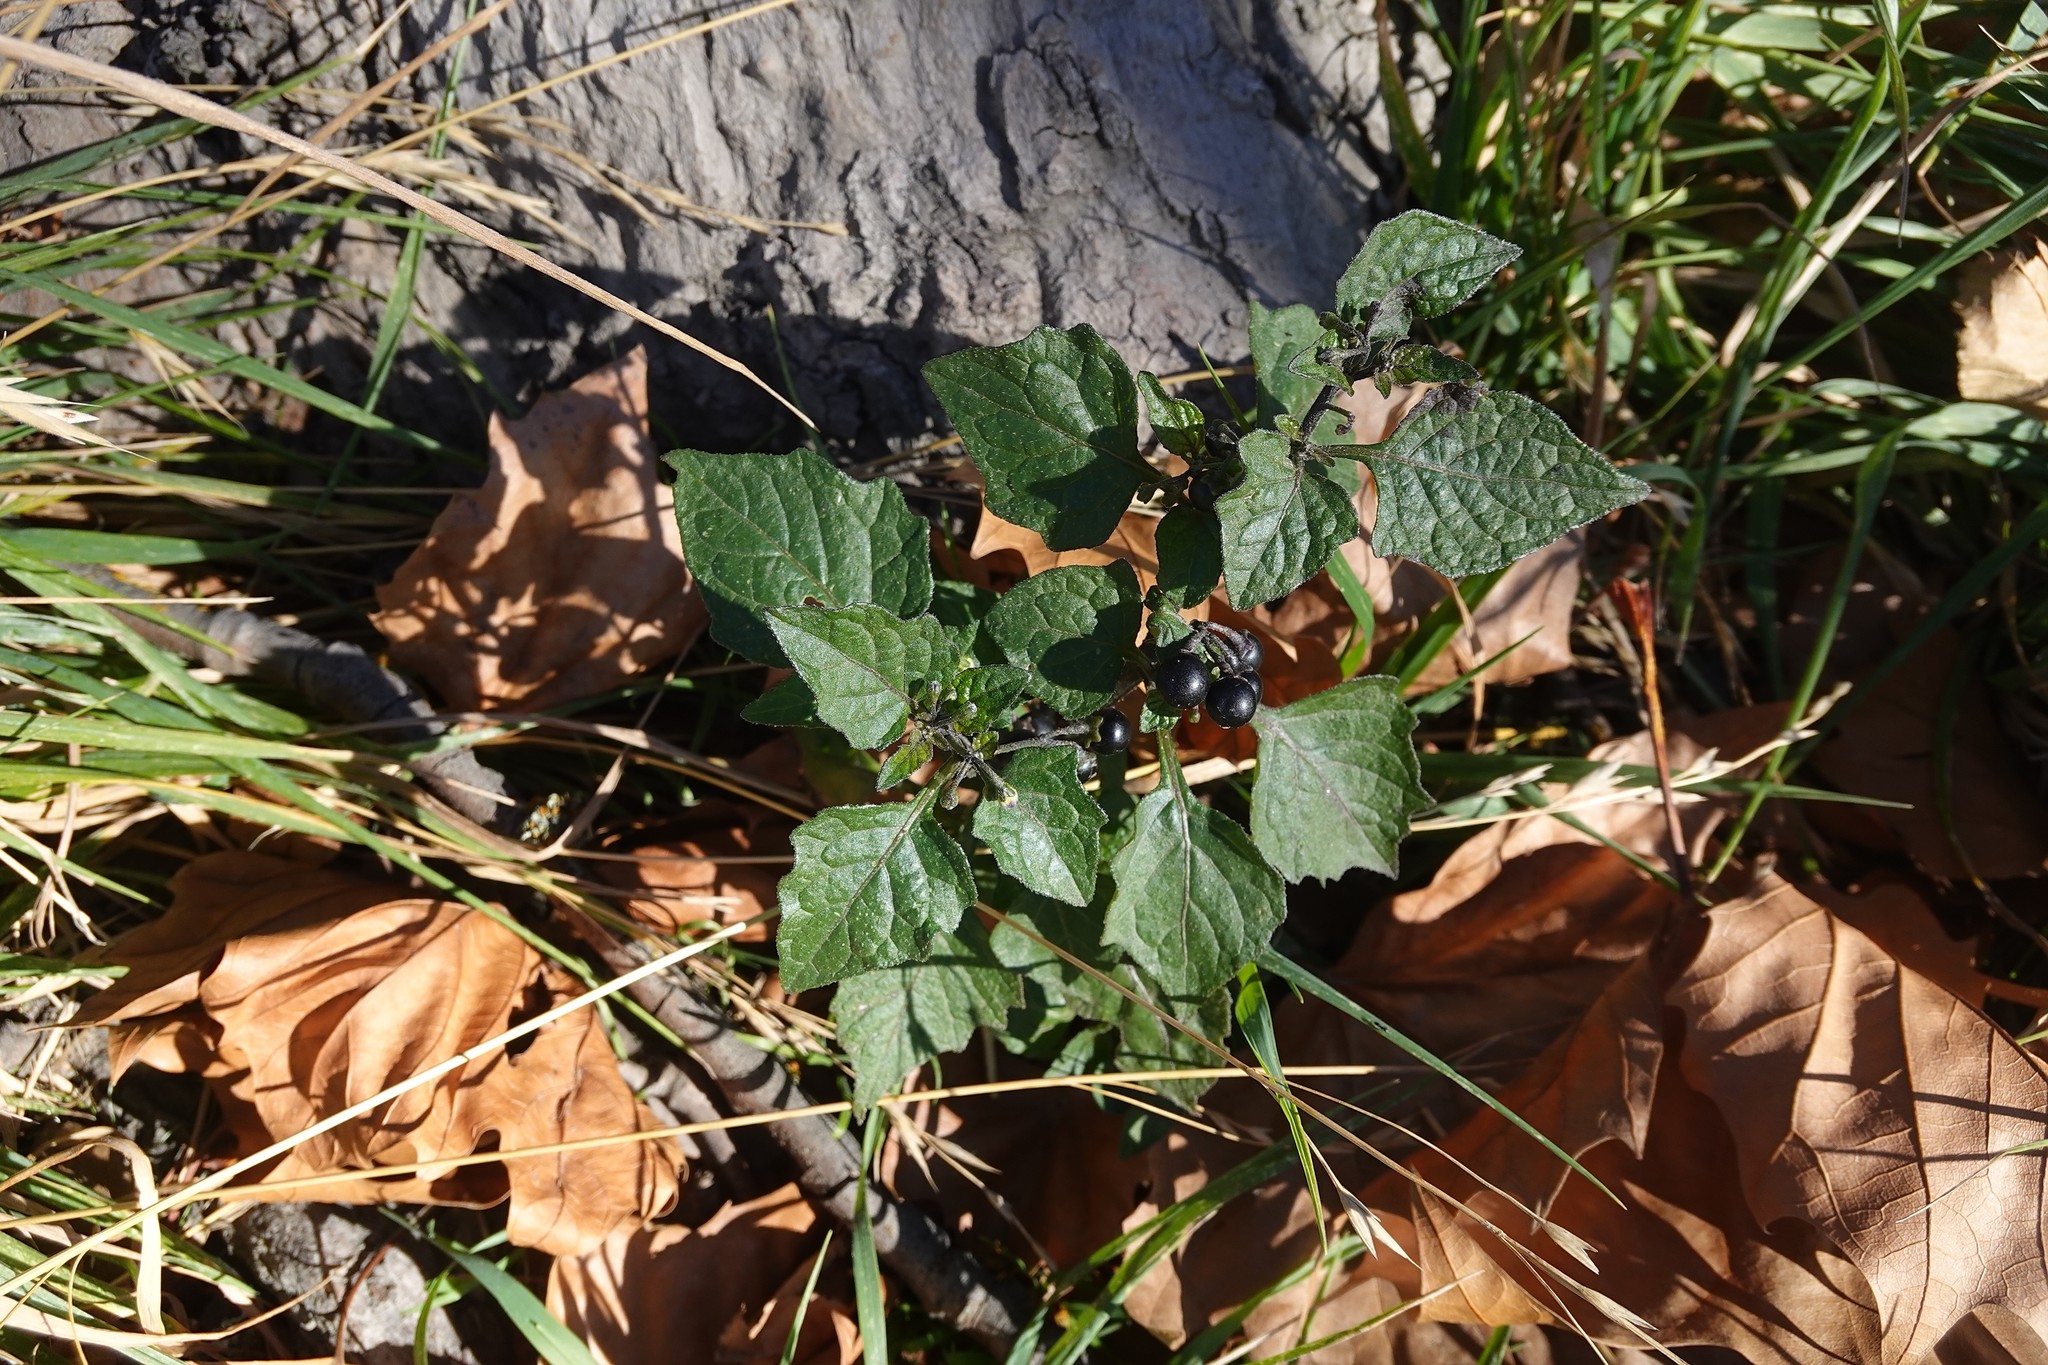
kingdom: Plantae
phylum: Tracheophyta
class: Magnoliopsida
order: Solanales
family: Solanaceae
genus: Solanum
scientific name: Solanum nigrum
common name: Black nightshade
